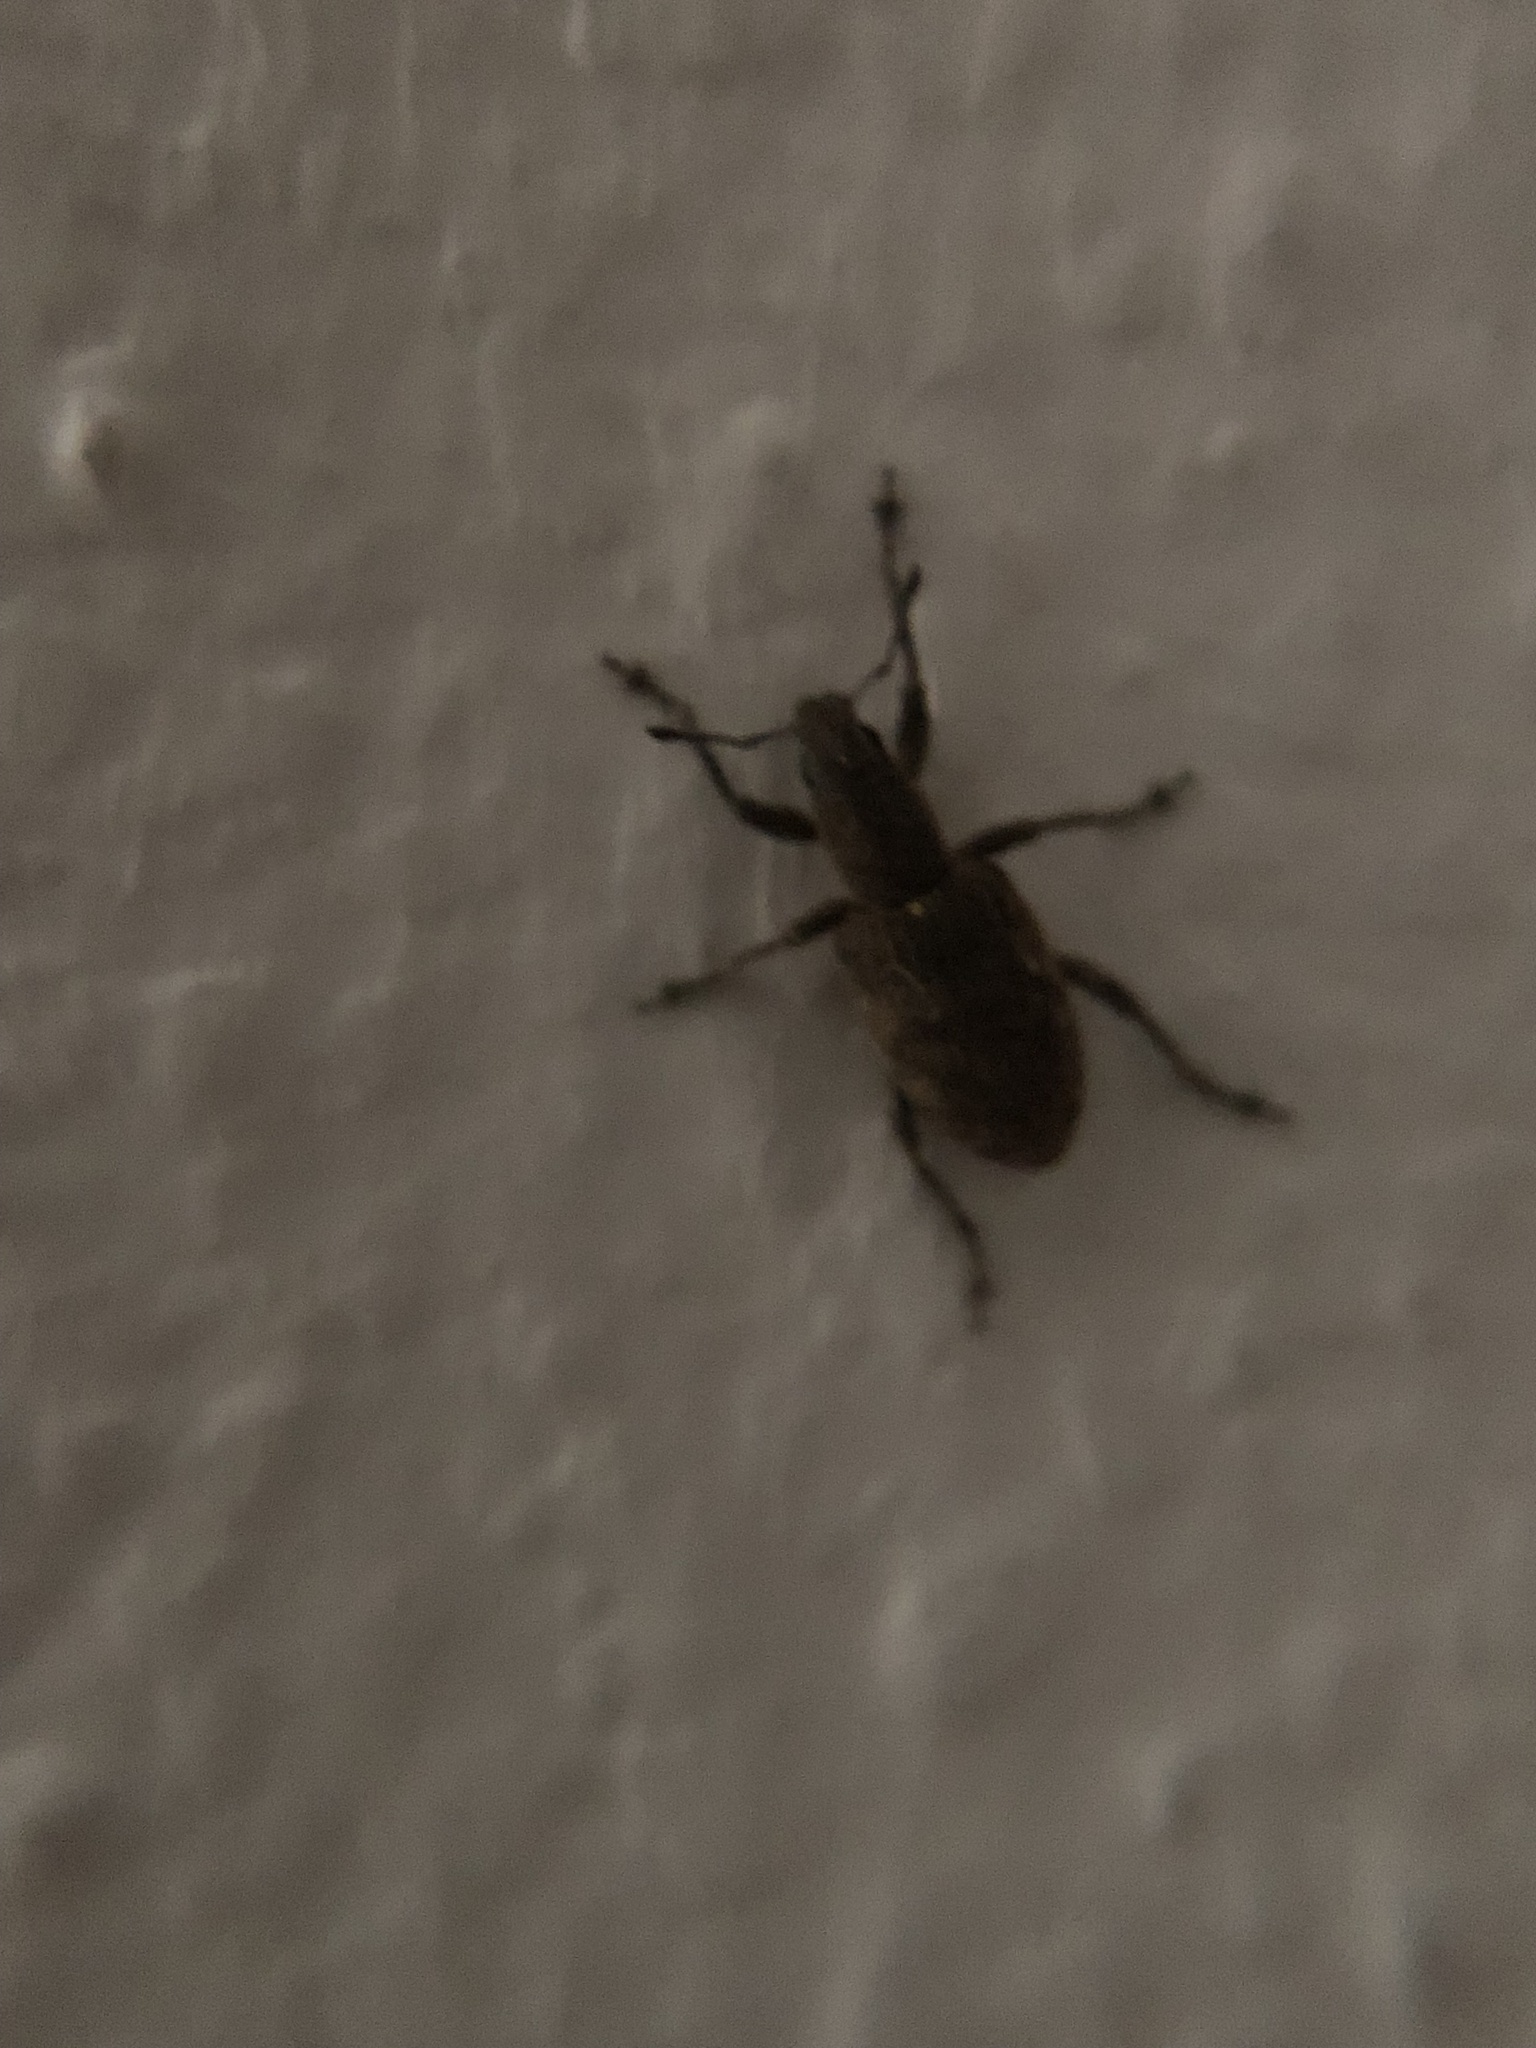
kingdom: Animalia
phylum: Arthropoda
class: Insecta
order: Coleoptera
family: Curculionidae
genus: Tanymecus
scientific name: Tanymecus confusus
